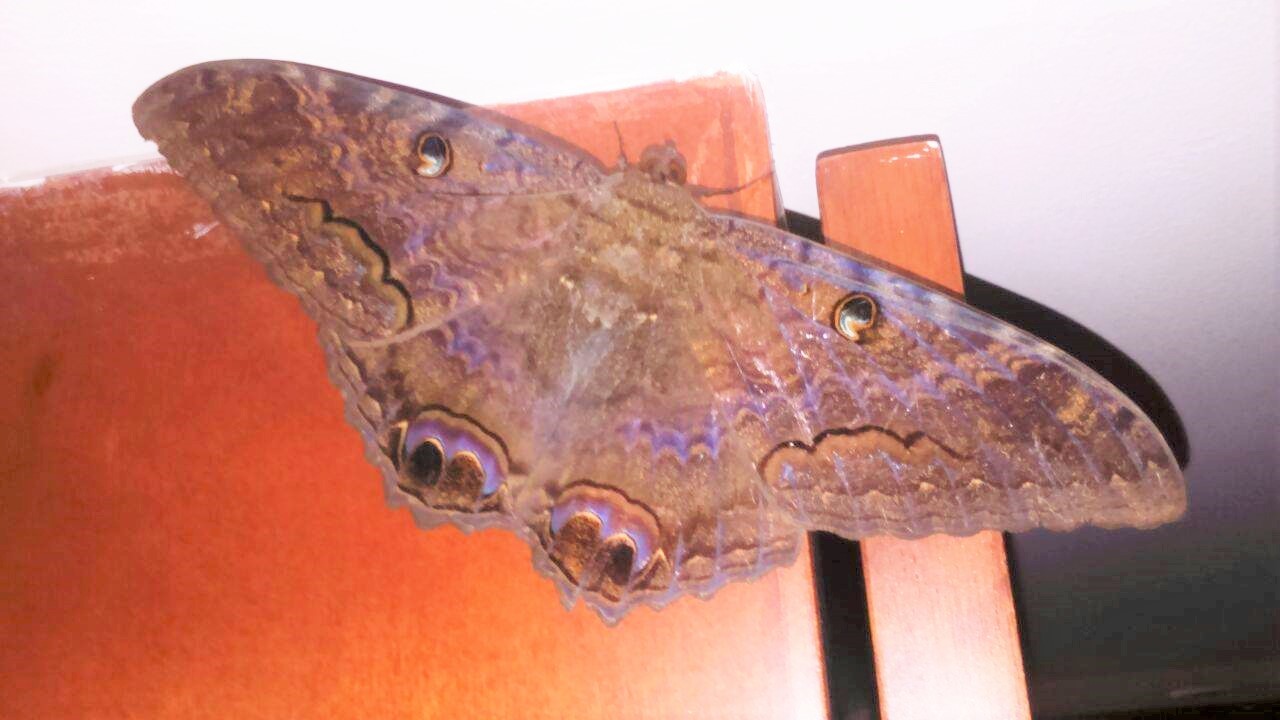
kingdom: Animalia
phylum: Arthropoda
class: Insecta
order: Lepidoptera
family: Erebidae
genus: Ascalapha
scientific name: Ascalapha odorata
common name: Black witch
